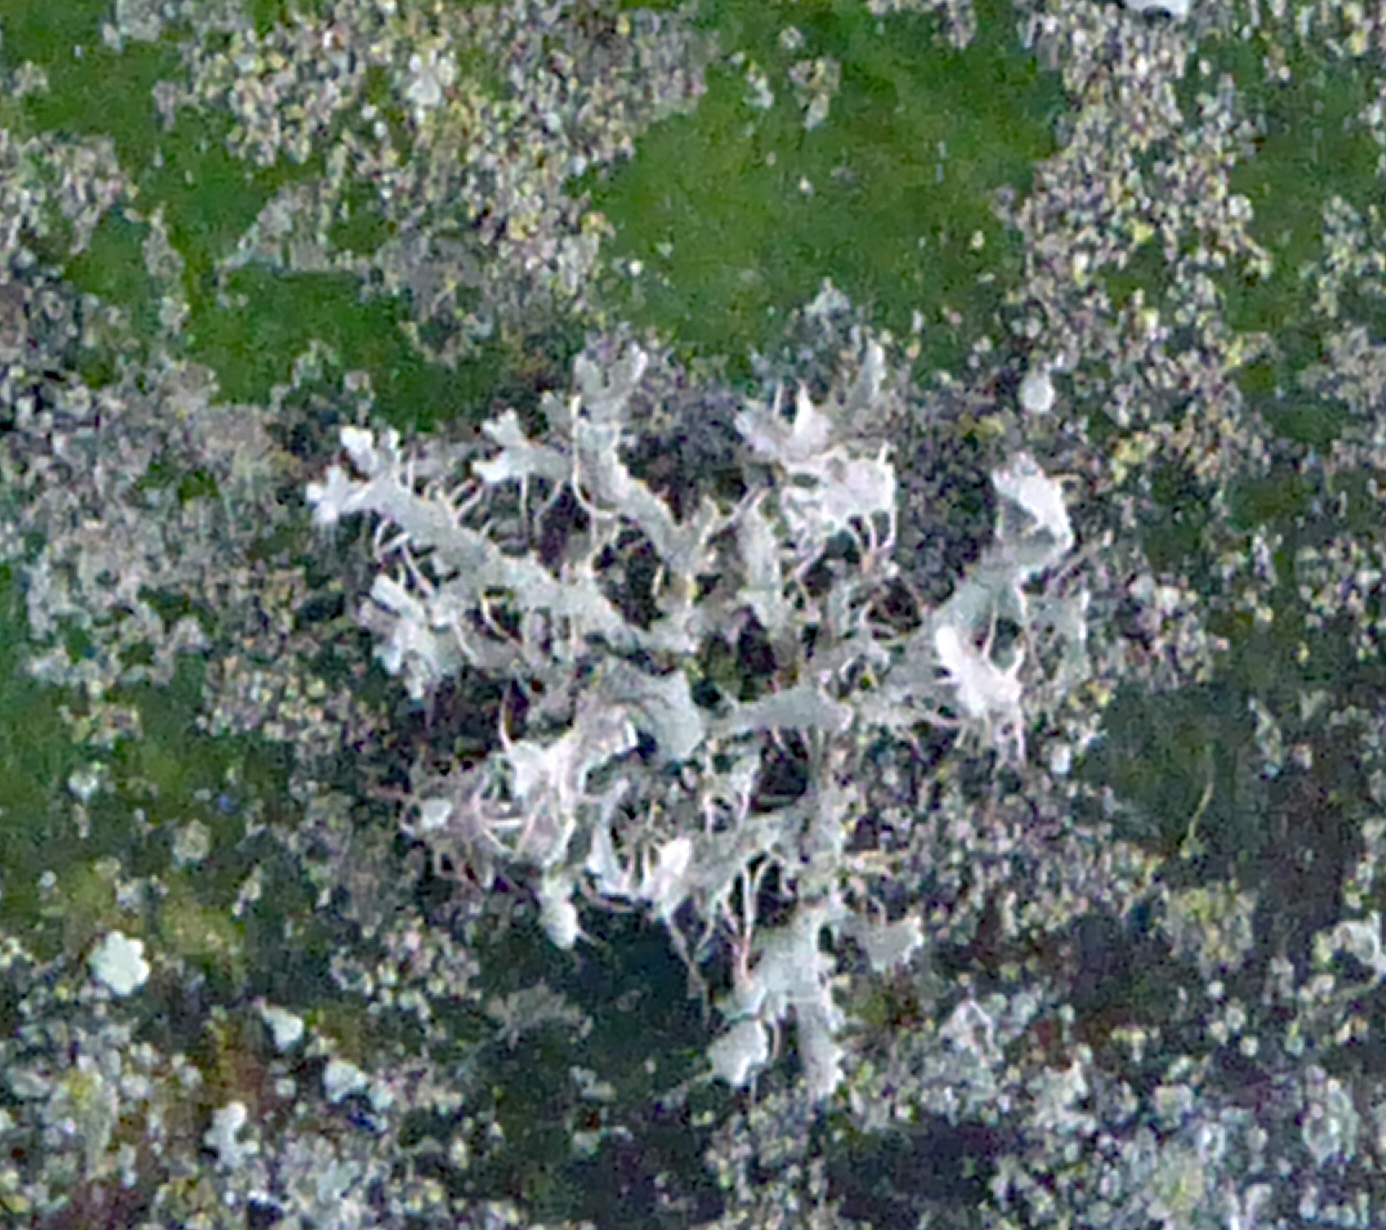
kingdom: Fungi
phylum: Ascomycota
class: Lecanoromycetes
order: Caliciales
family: Physciaceae
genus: Physcia
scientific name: Physcia adscendens
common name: Hooded rosette lichen
